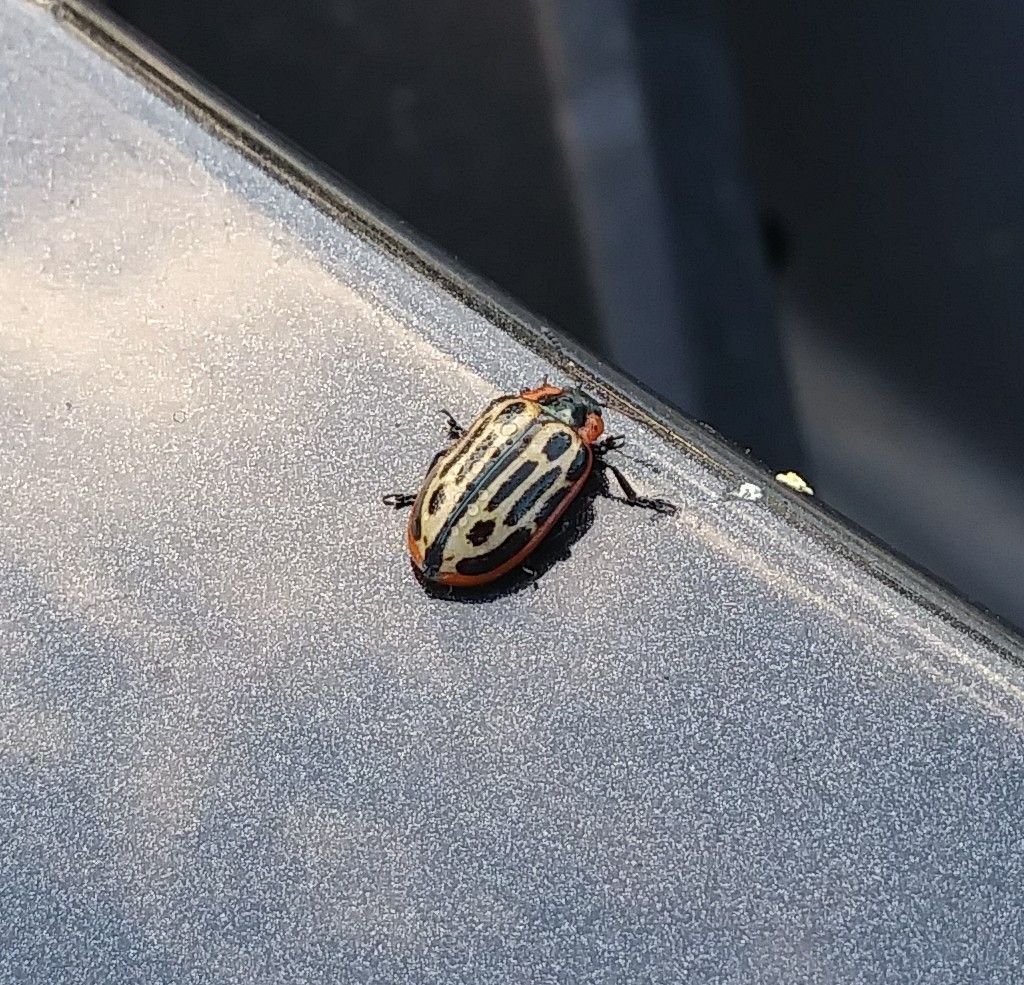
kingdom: Animalia
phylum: Arthropoda
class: Insecta
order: Coleoptera
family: Chrysomelidae
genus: Aethiopocassis
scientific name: Aethiopocassis scripta
